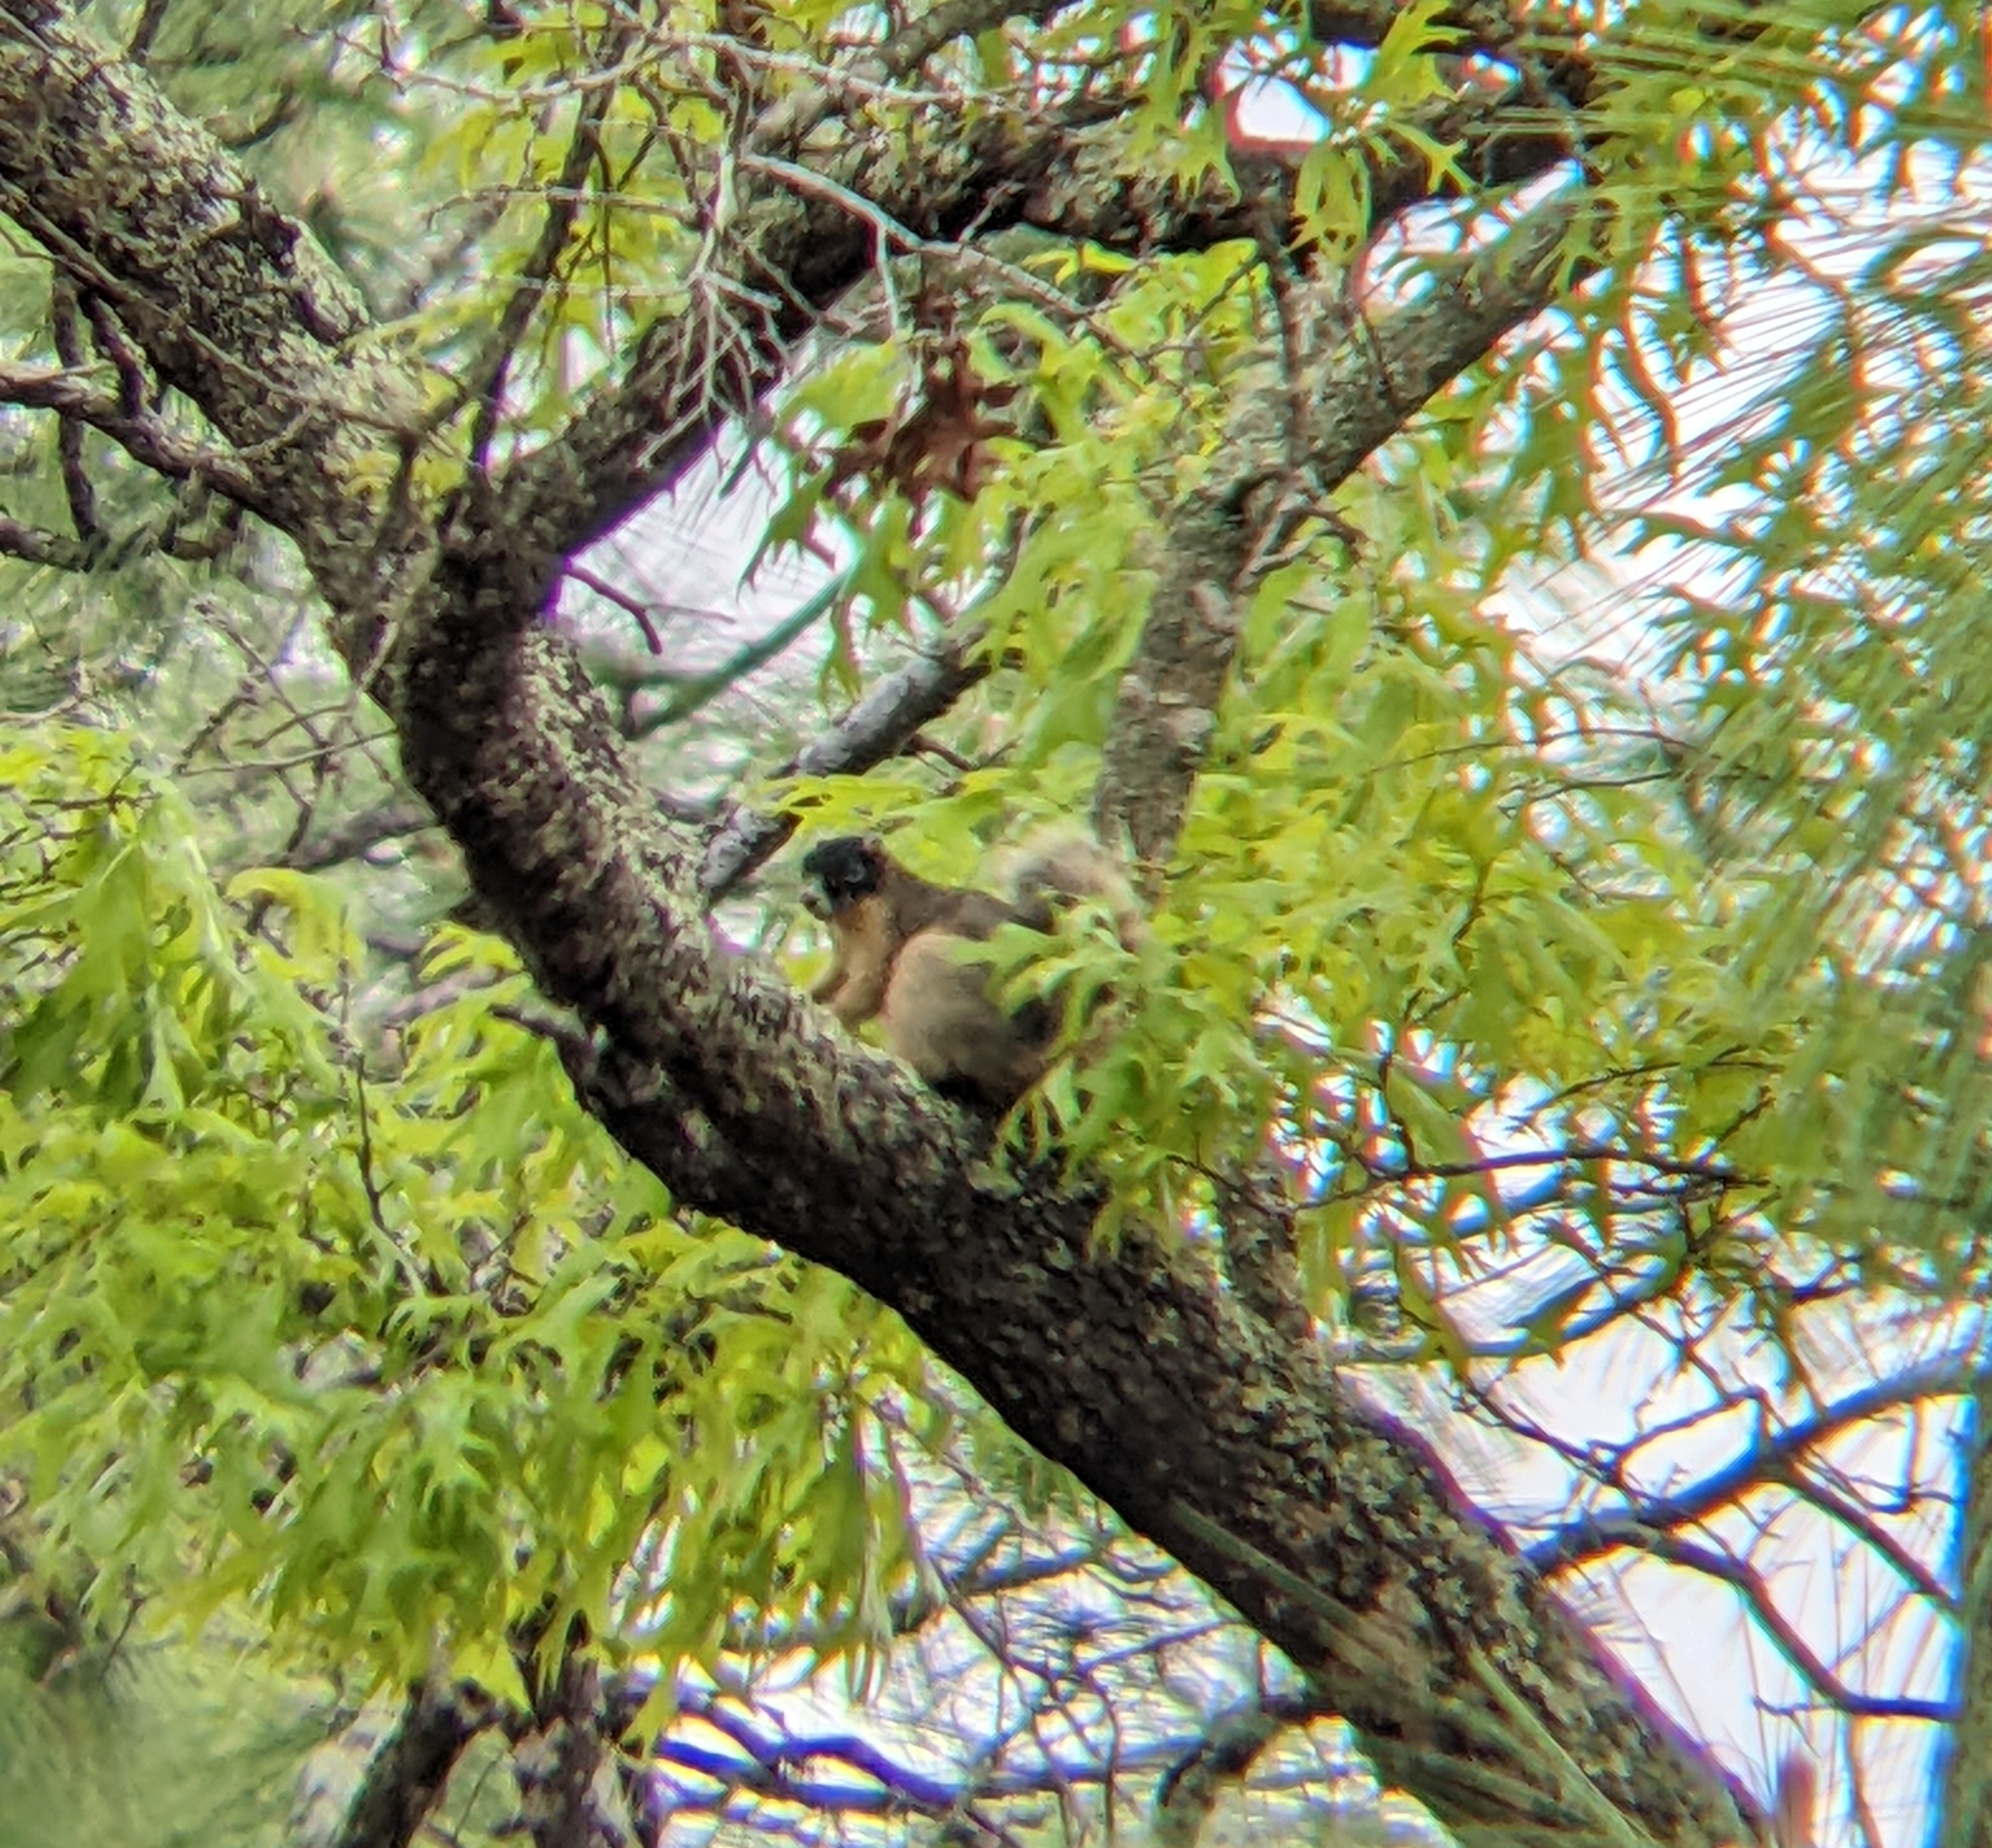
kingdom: Animalia
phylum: Chordata
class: Mammalia
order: Rodentia
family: Sciuridae
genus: Sciurus
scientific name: Sciurus niger
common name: Fox squirrel
